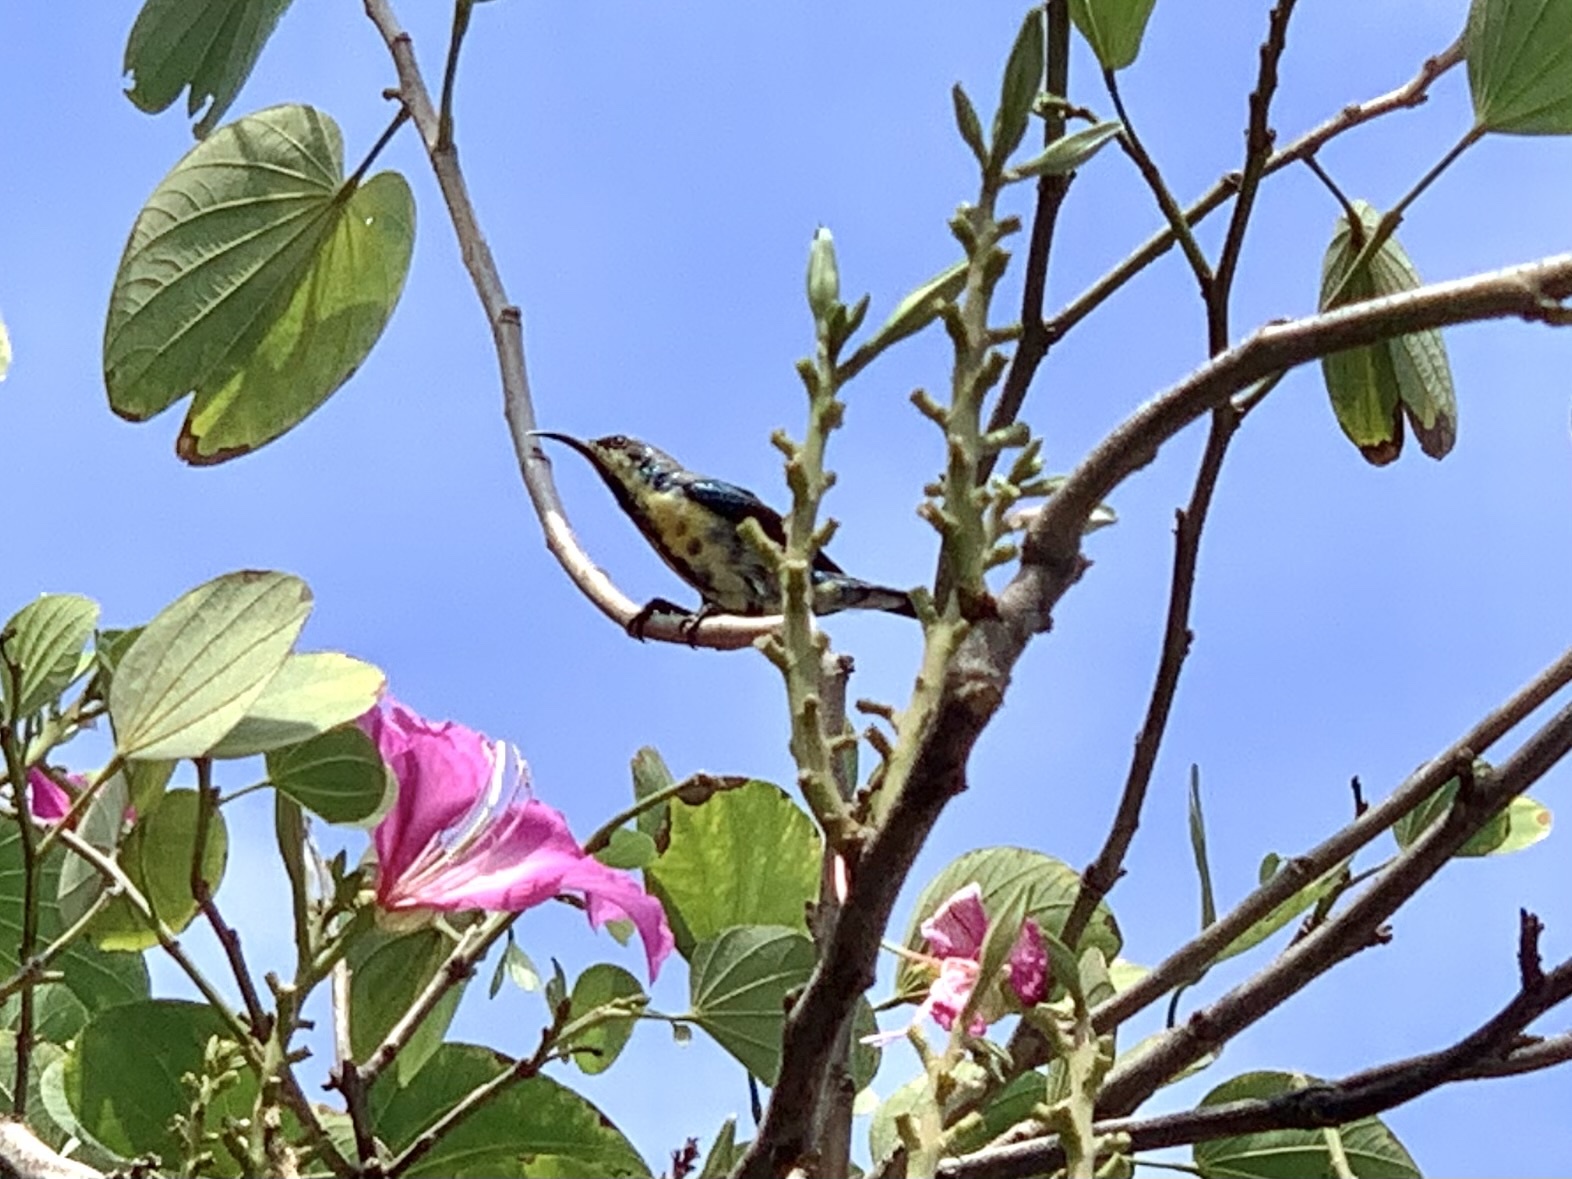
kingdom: Animalia
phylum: Chordata
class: Aves
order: Passeriformes
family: Nectariniidae
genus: Cinnyris
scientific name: Cinnyris asiaticus
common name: Purple sunbird
